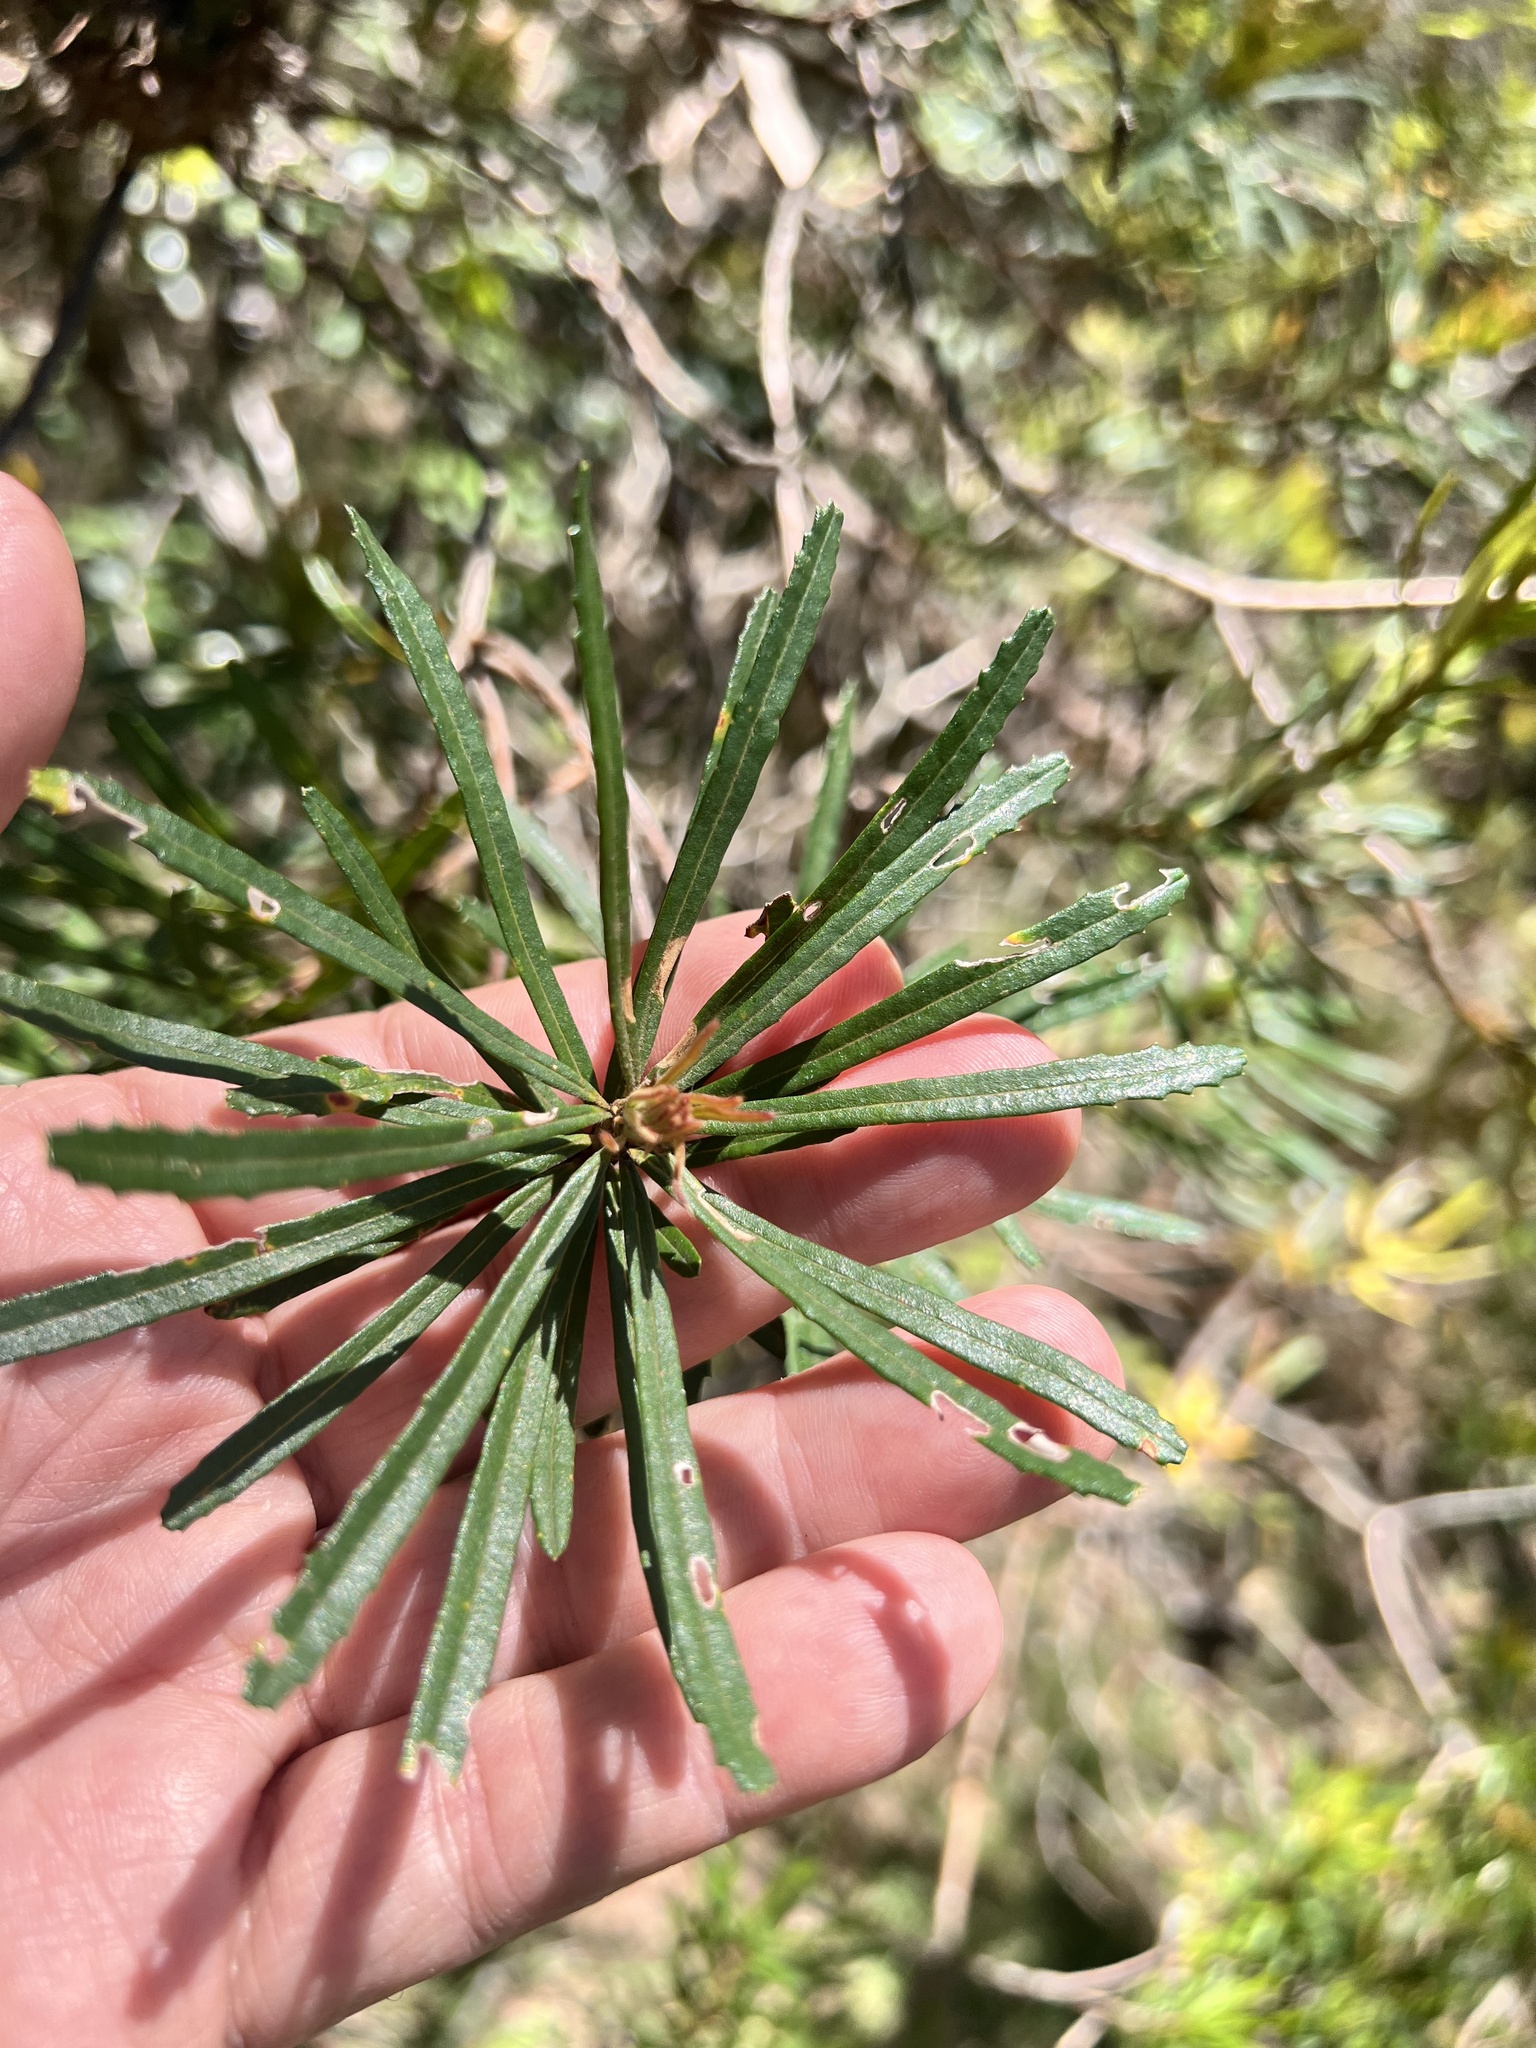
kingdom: Plantae
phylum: Tracheophyta
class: Magnoliopsida
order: Proteales
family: Proteaceae
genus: Banksia
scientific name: Banksia spinulosa
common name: Hairpin banksia
